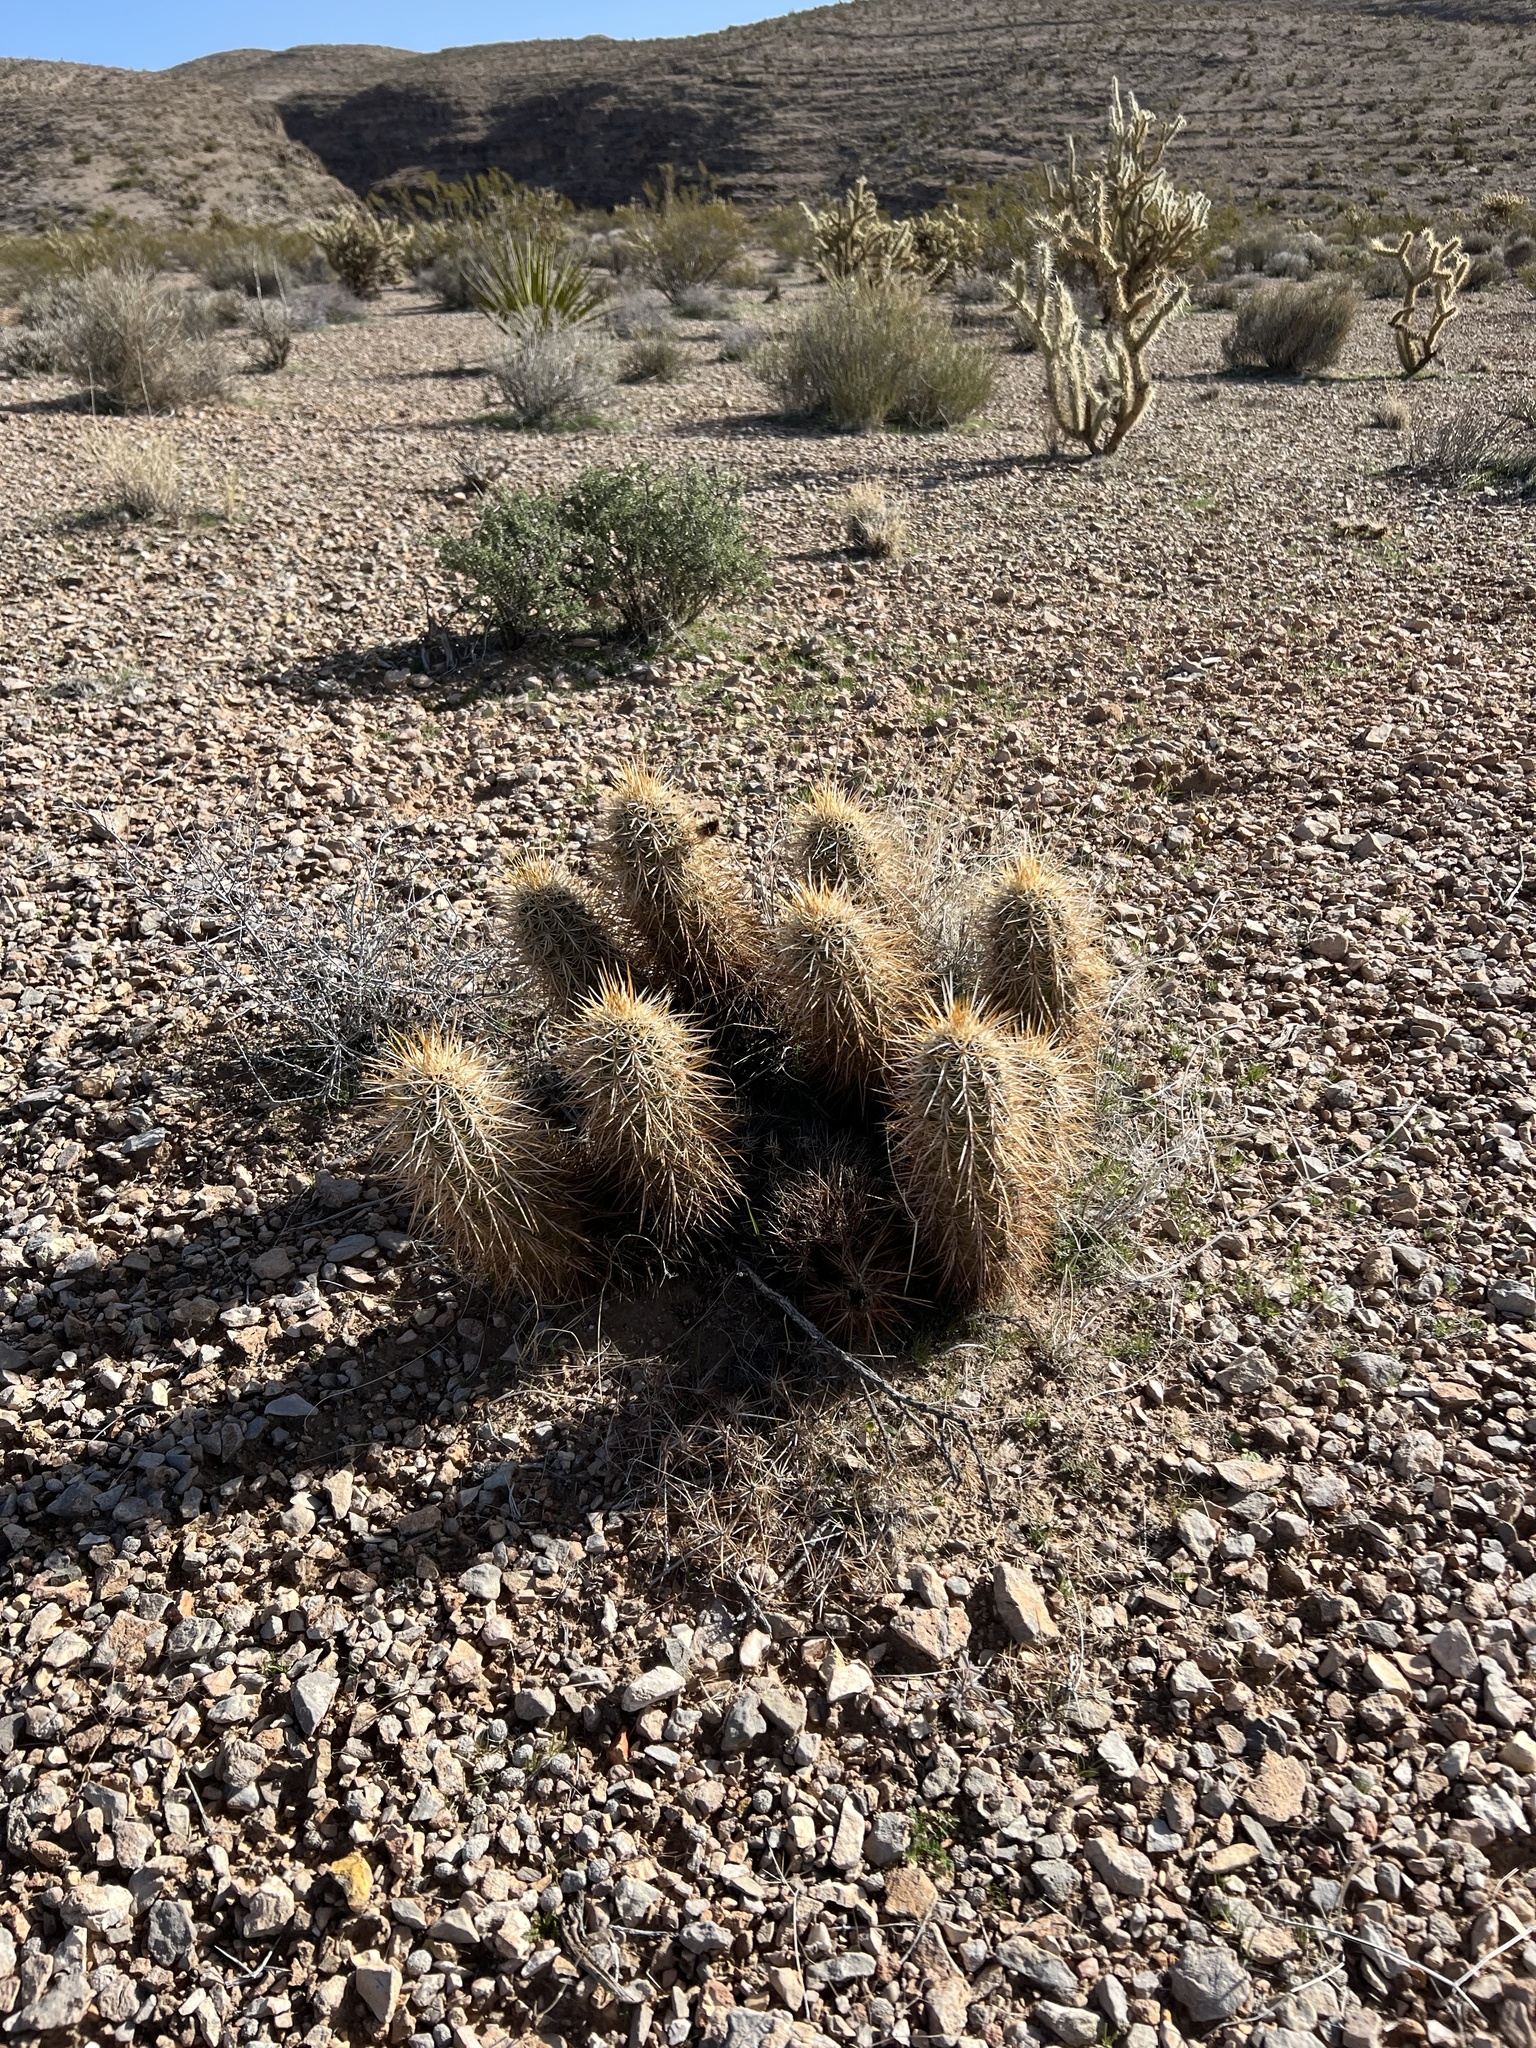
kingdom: Plantae
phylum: Tracheophyta
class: Magnoliopsida
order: Caryophyllales
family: Cactaceae
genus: Echinocereus
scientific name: Echinocereus engelmannii
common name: Engelmann's hedgehog cactus
